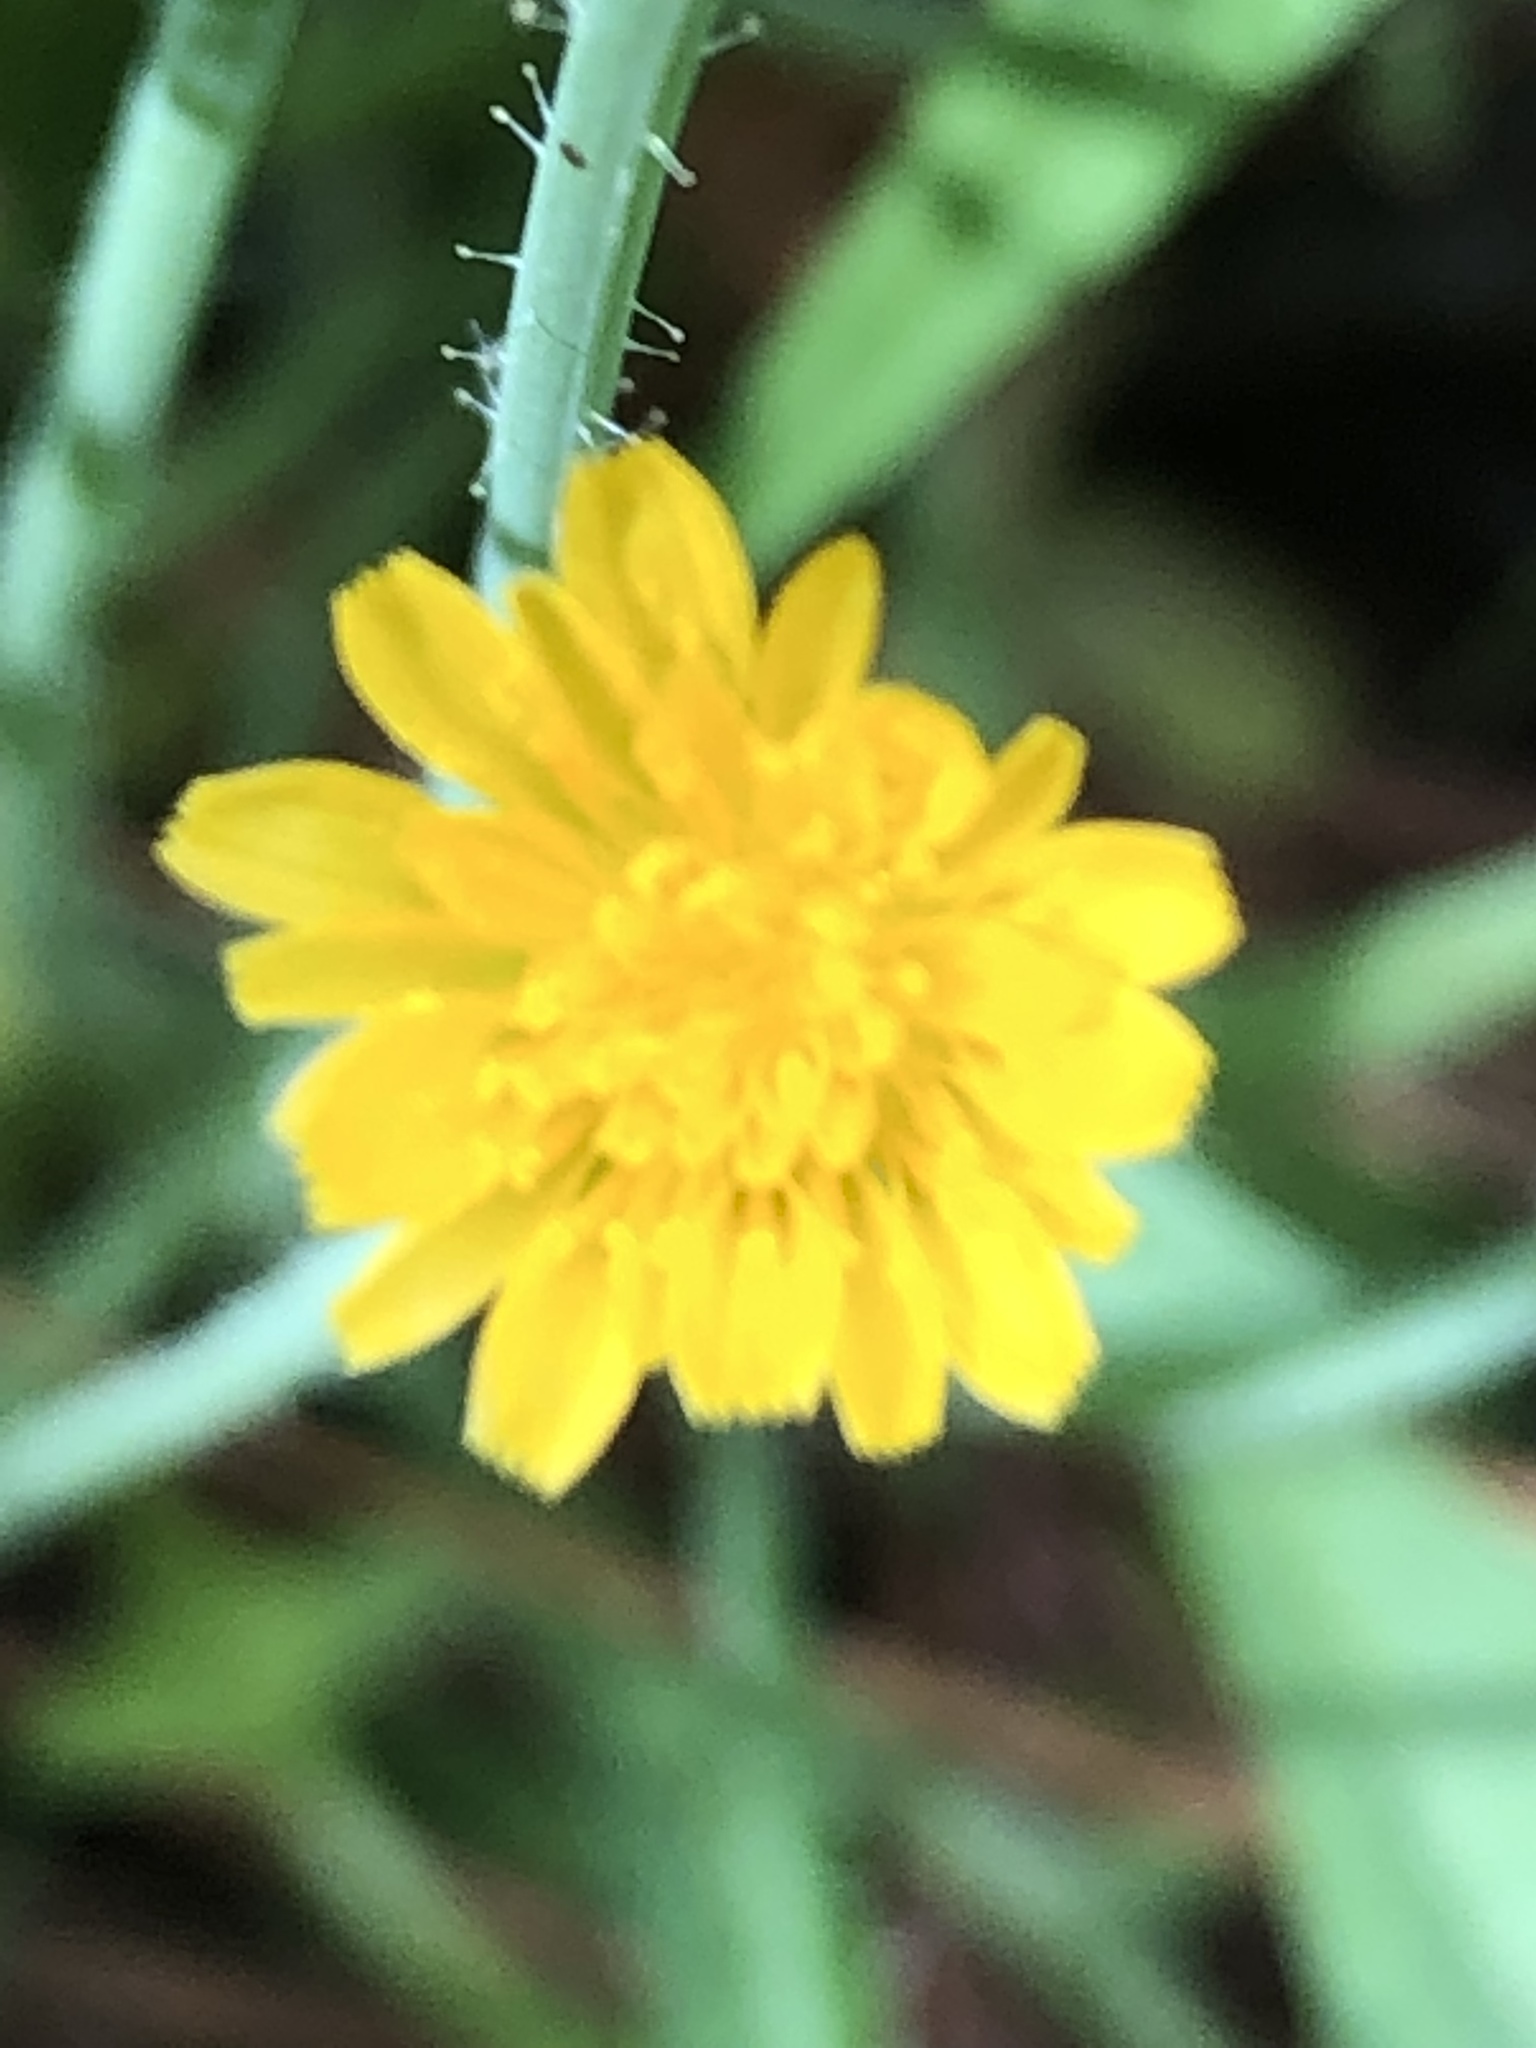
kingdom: Plantae
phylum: Tracheophyta
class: Magnoliopsida
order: Asterales
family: Asteraceae
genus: Krigia
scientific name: Krigia virginica
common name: Virginia dwarf-dandelion
